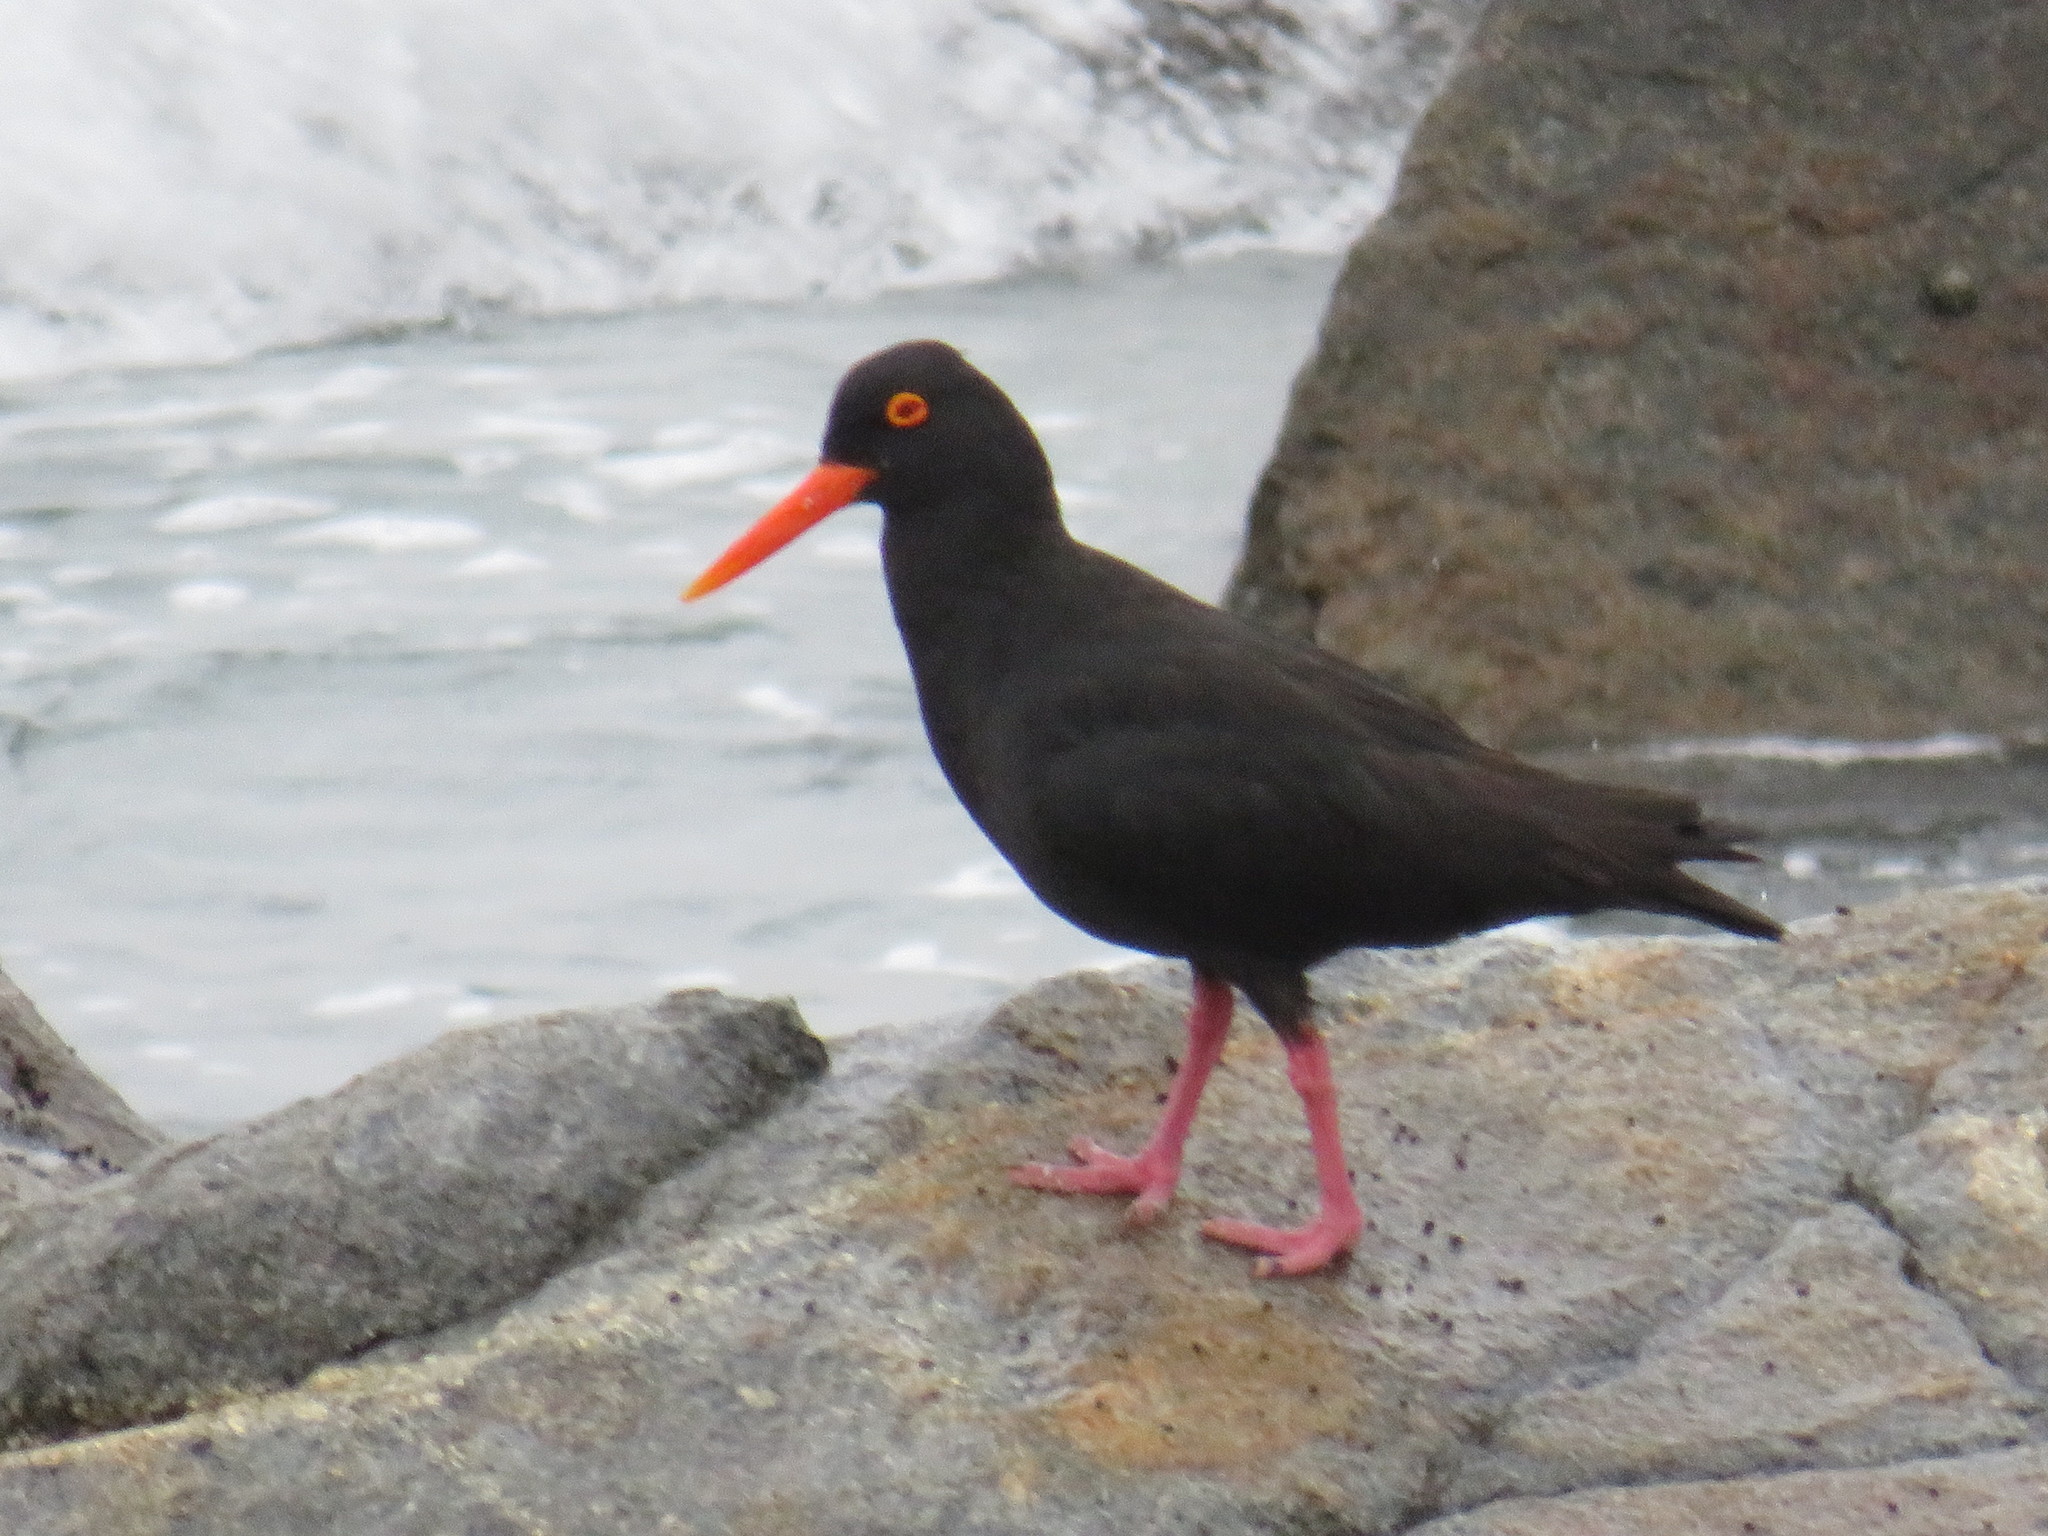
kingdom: Animalia
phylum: Chordata
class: Aves
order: Charadriiformes
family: Haematopodidae
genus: Haematopus
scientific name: Haematopus moquini
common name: African oystercatcher
